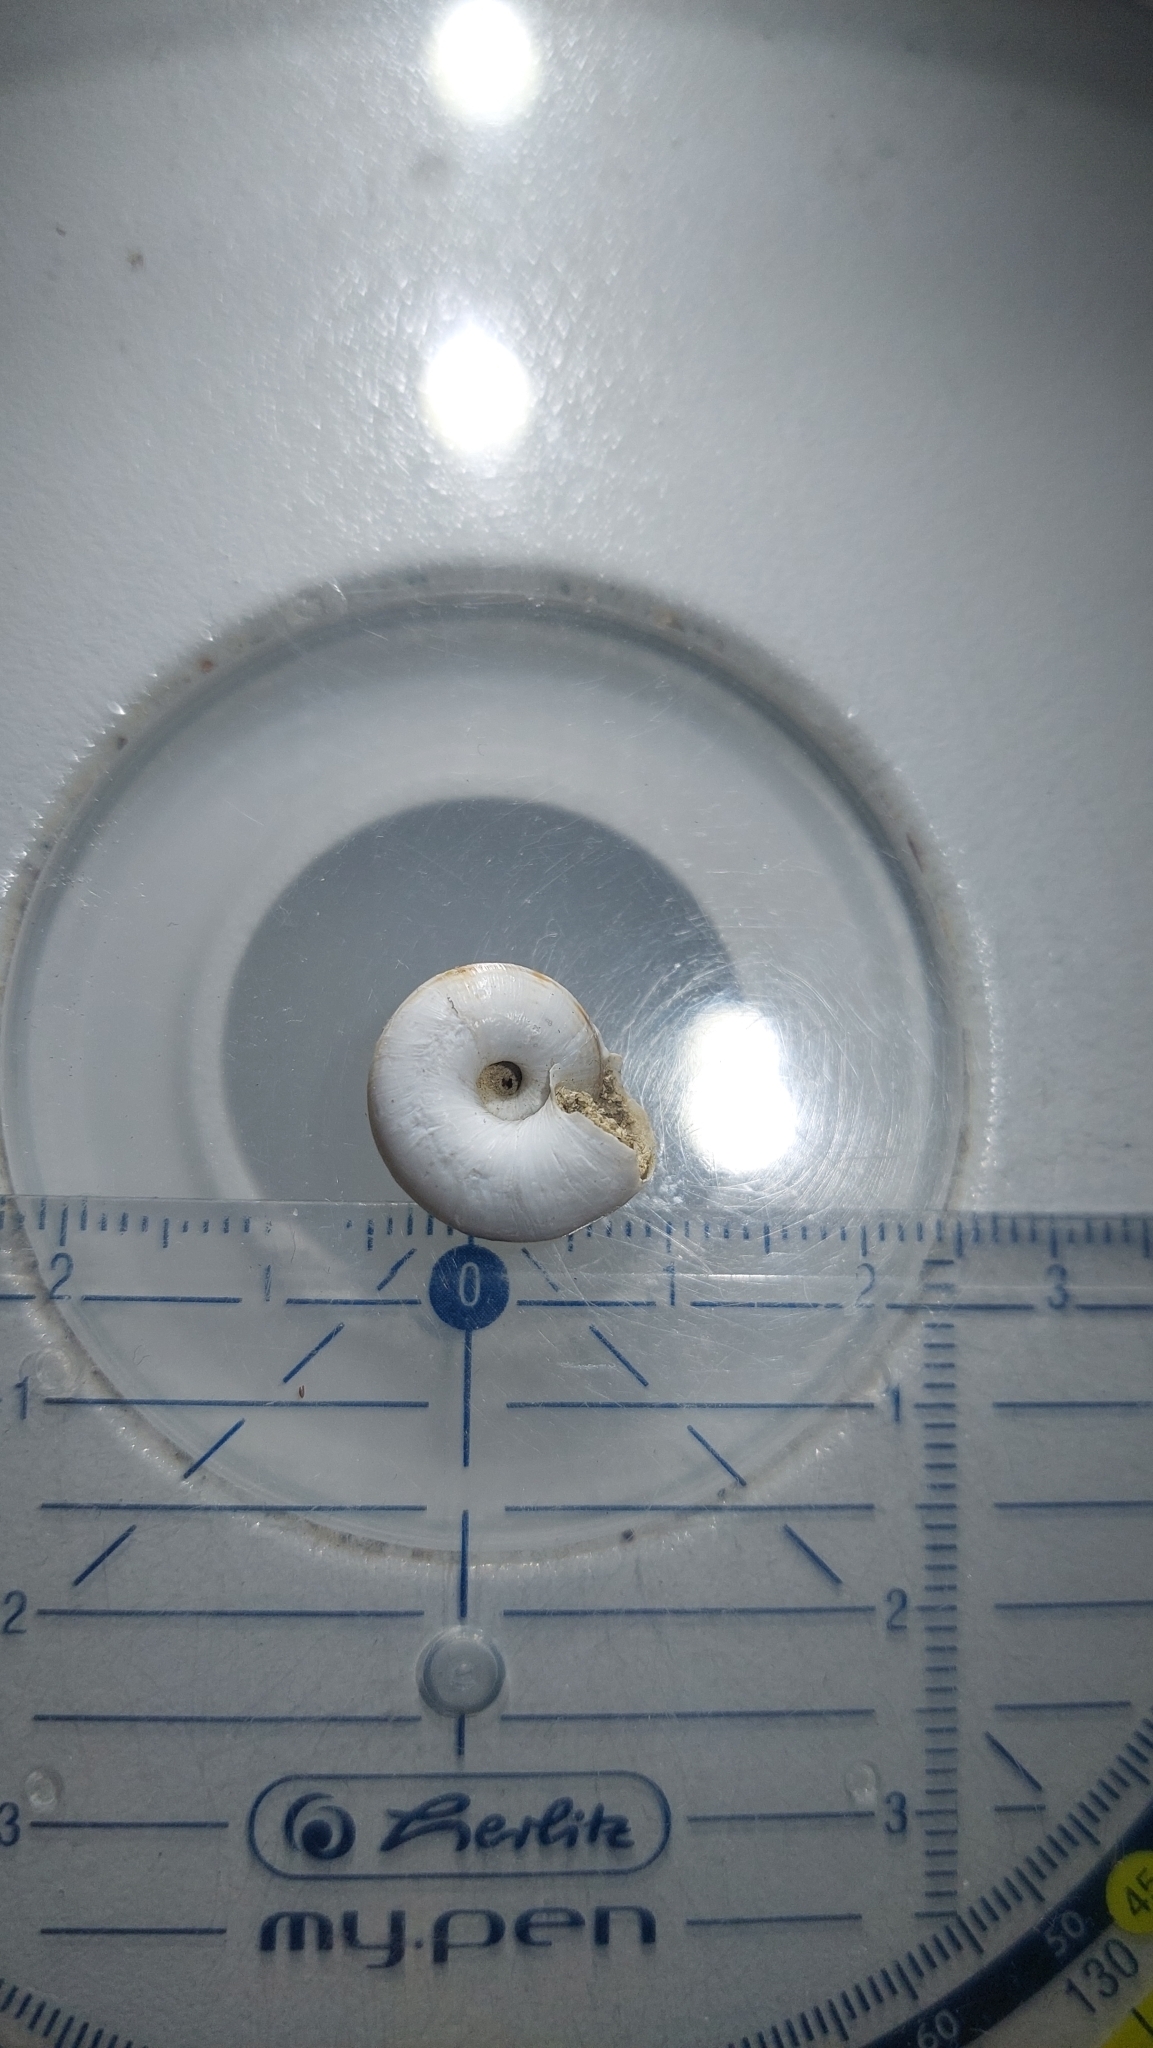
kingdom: Animalia
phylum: Mollusca
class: Gastropoda
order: Stylommatophora
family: Geomitridae
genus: Xerolenta
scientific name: Xerolenta obvia
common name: White heath snail
